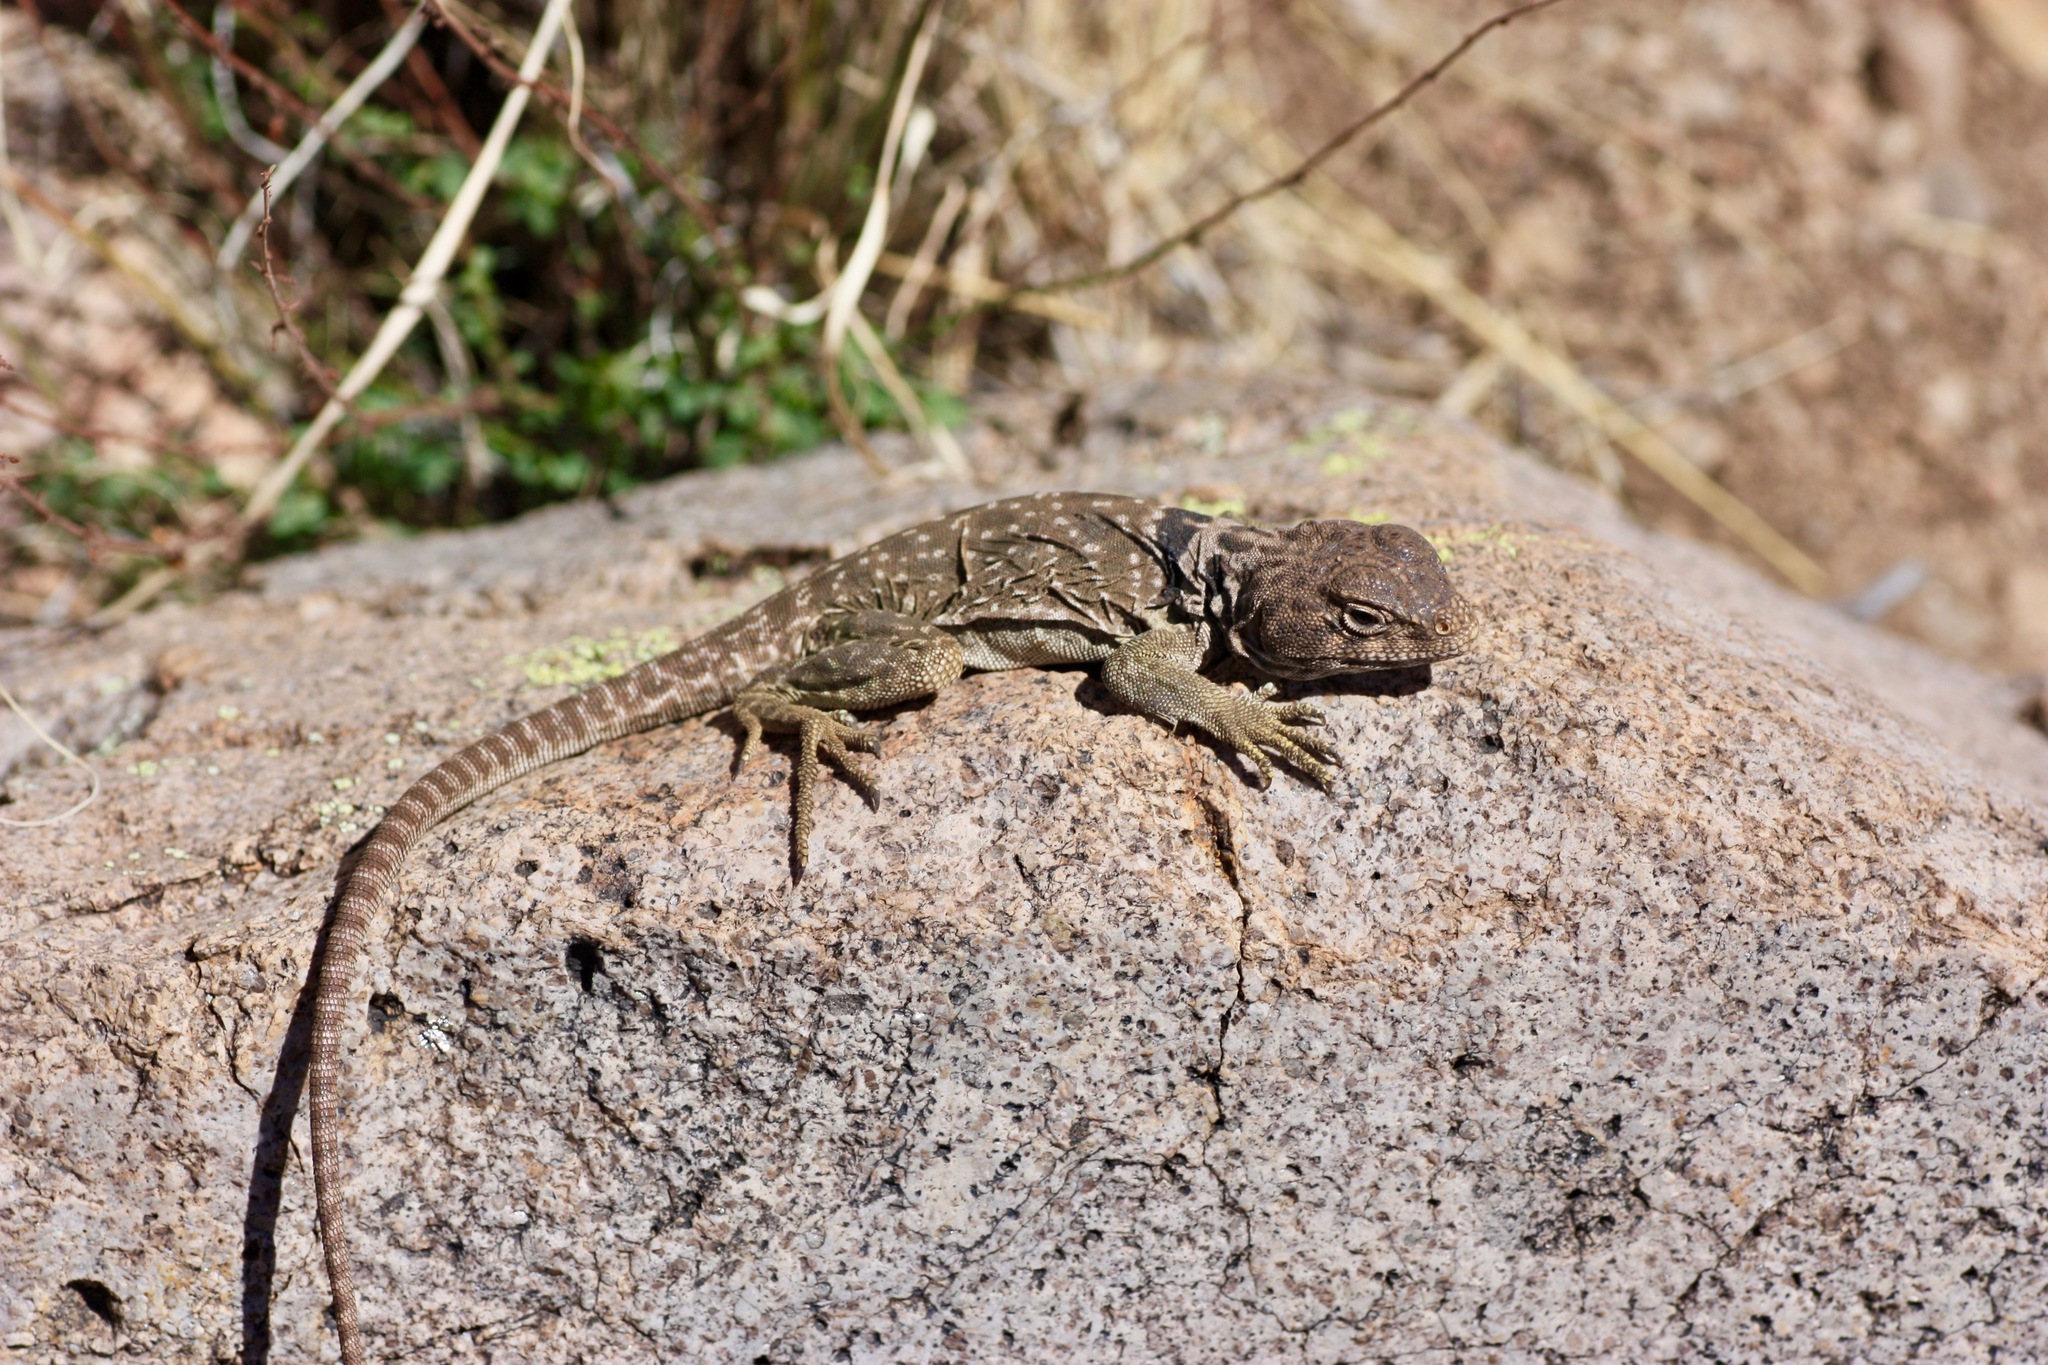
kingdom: Animalia
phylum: Chordata
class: Squamata
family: Crotaphytidae
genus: Crotaphytus
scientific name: Crotaphytus collaris
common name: Collared lizard
